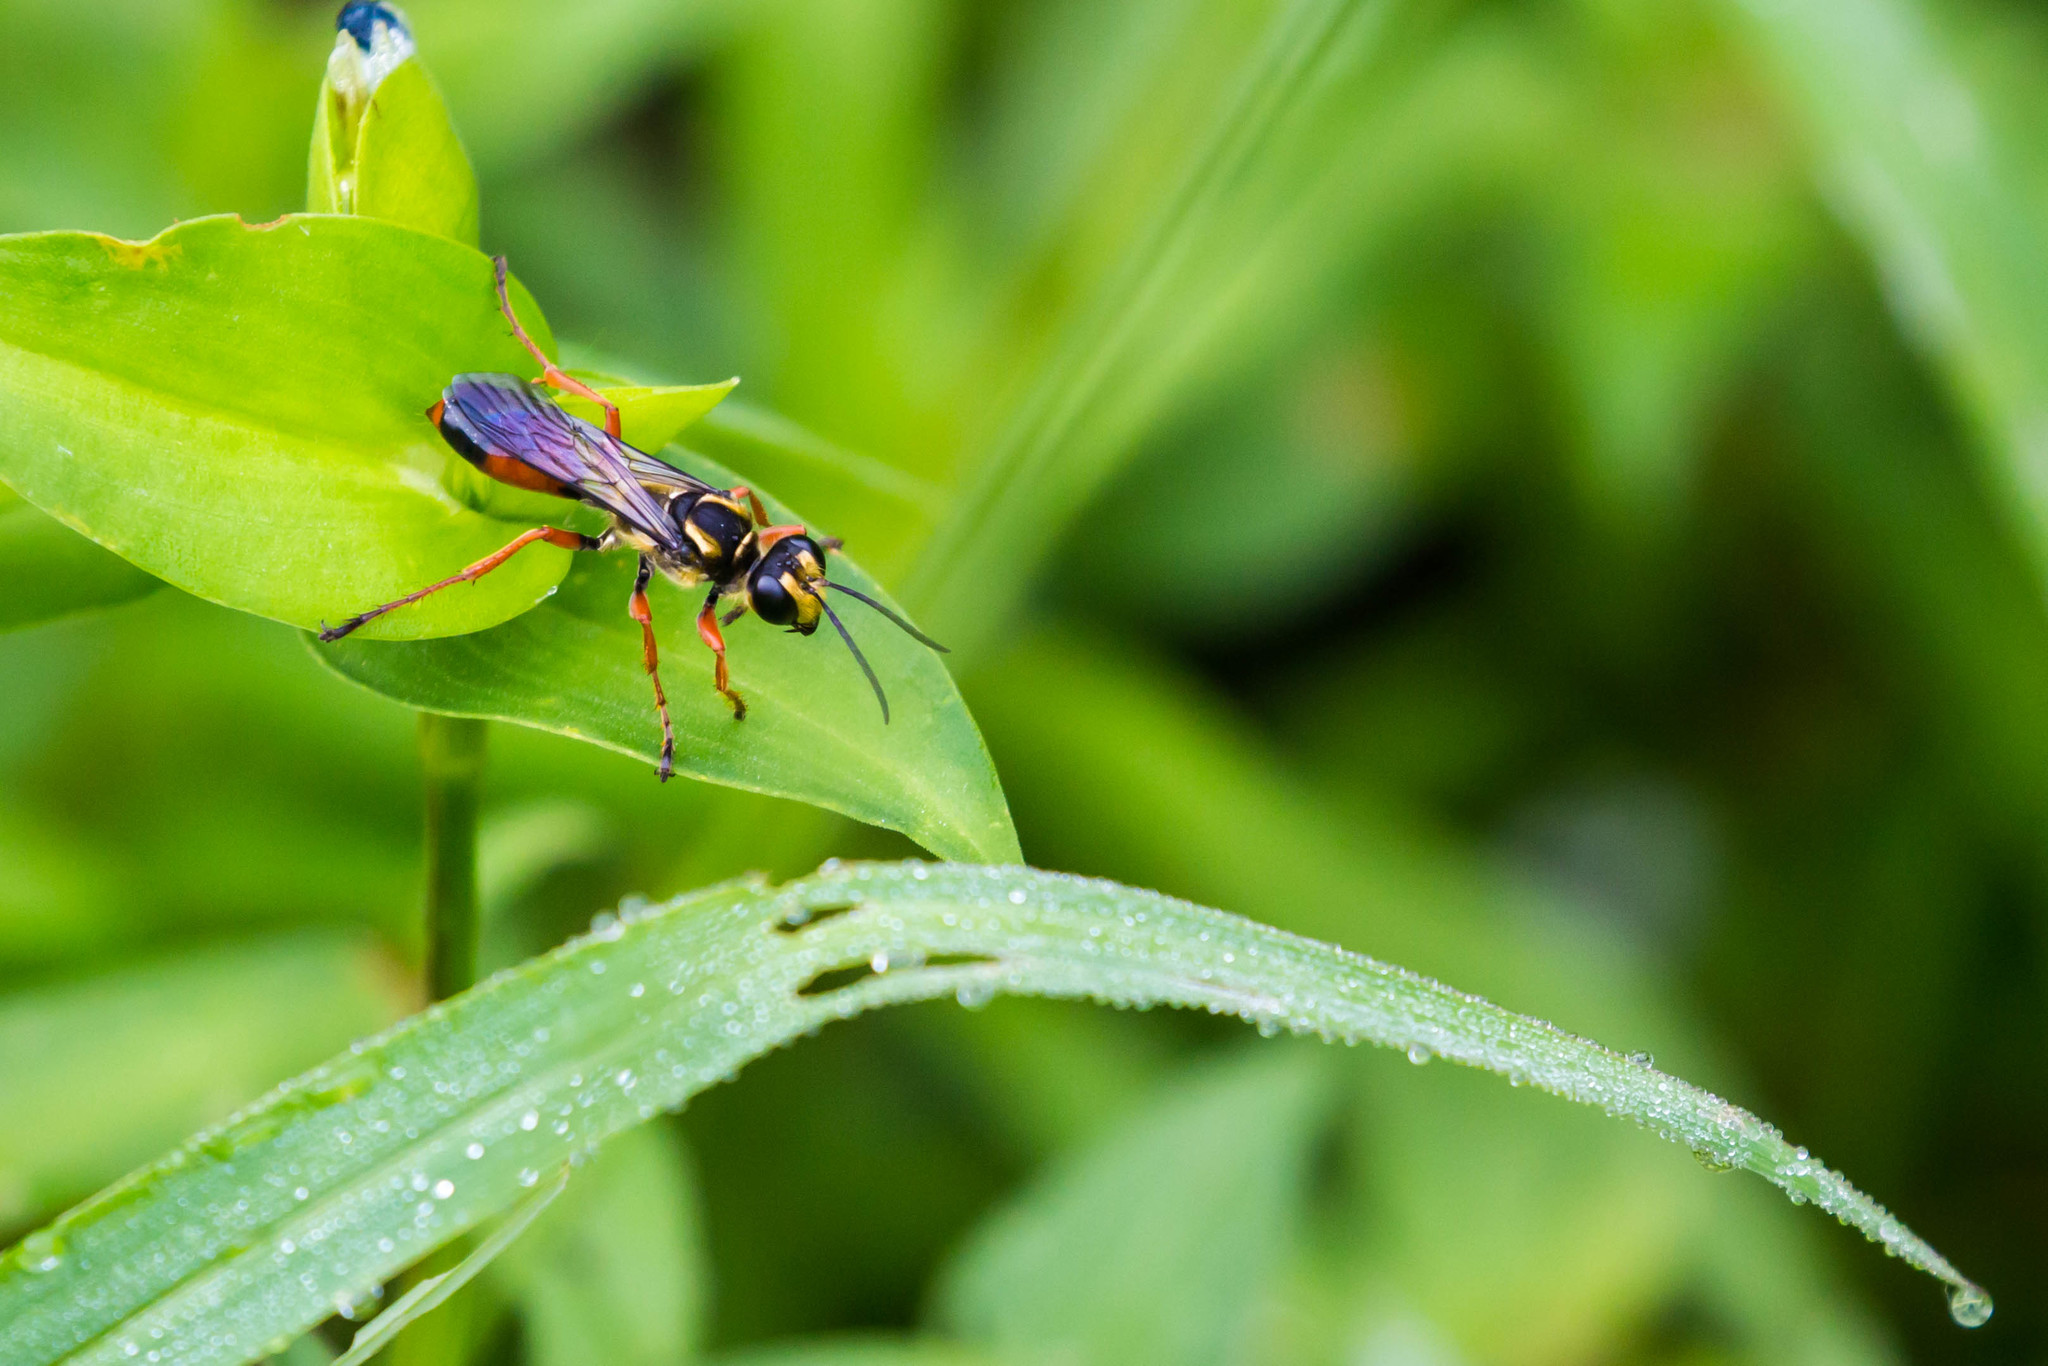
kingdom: Animalia
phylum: Arthropoda
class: Insecta
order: Hymenoptera
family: Sphecidae
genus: Sphex
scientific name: Sphex dorsalis
